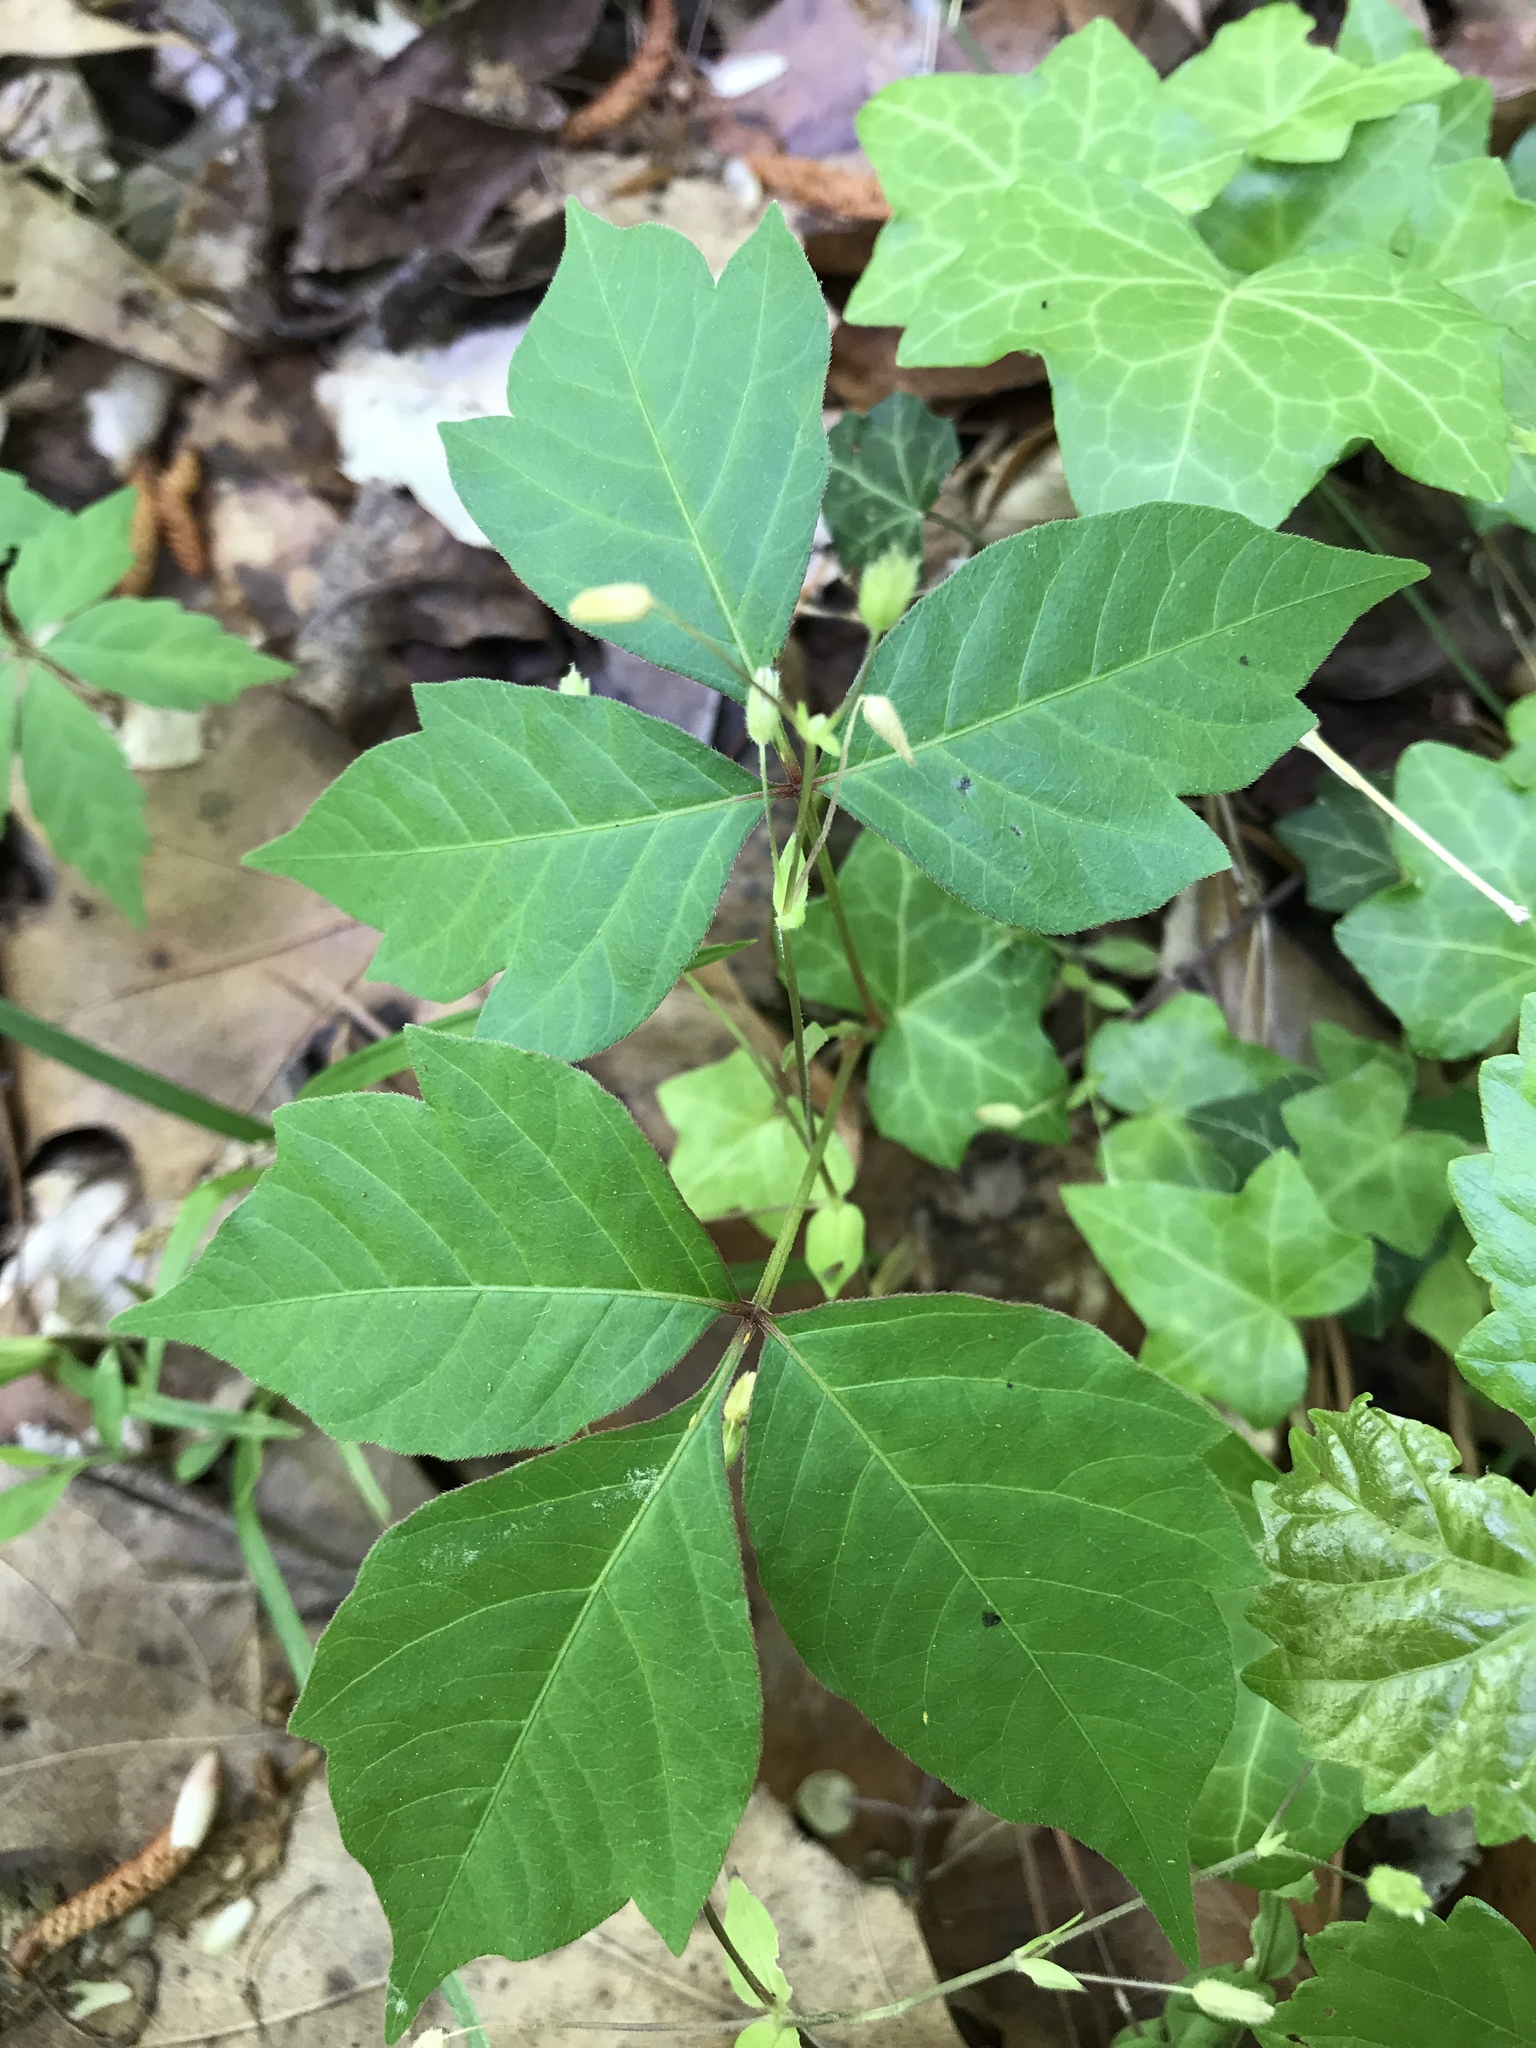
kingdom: Plantae
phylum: Tracheophyta
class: Magnoliopsida
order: Sapindales
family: Anacardiaceae
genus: Toxicodendron
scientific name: Toxicodendron radicans
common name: Poison ivy
